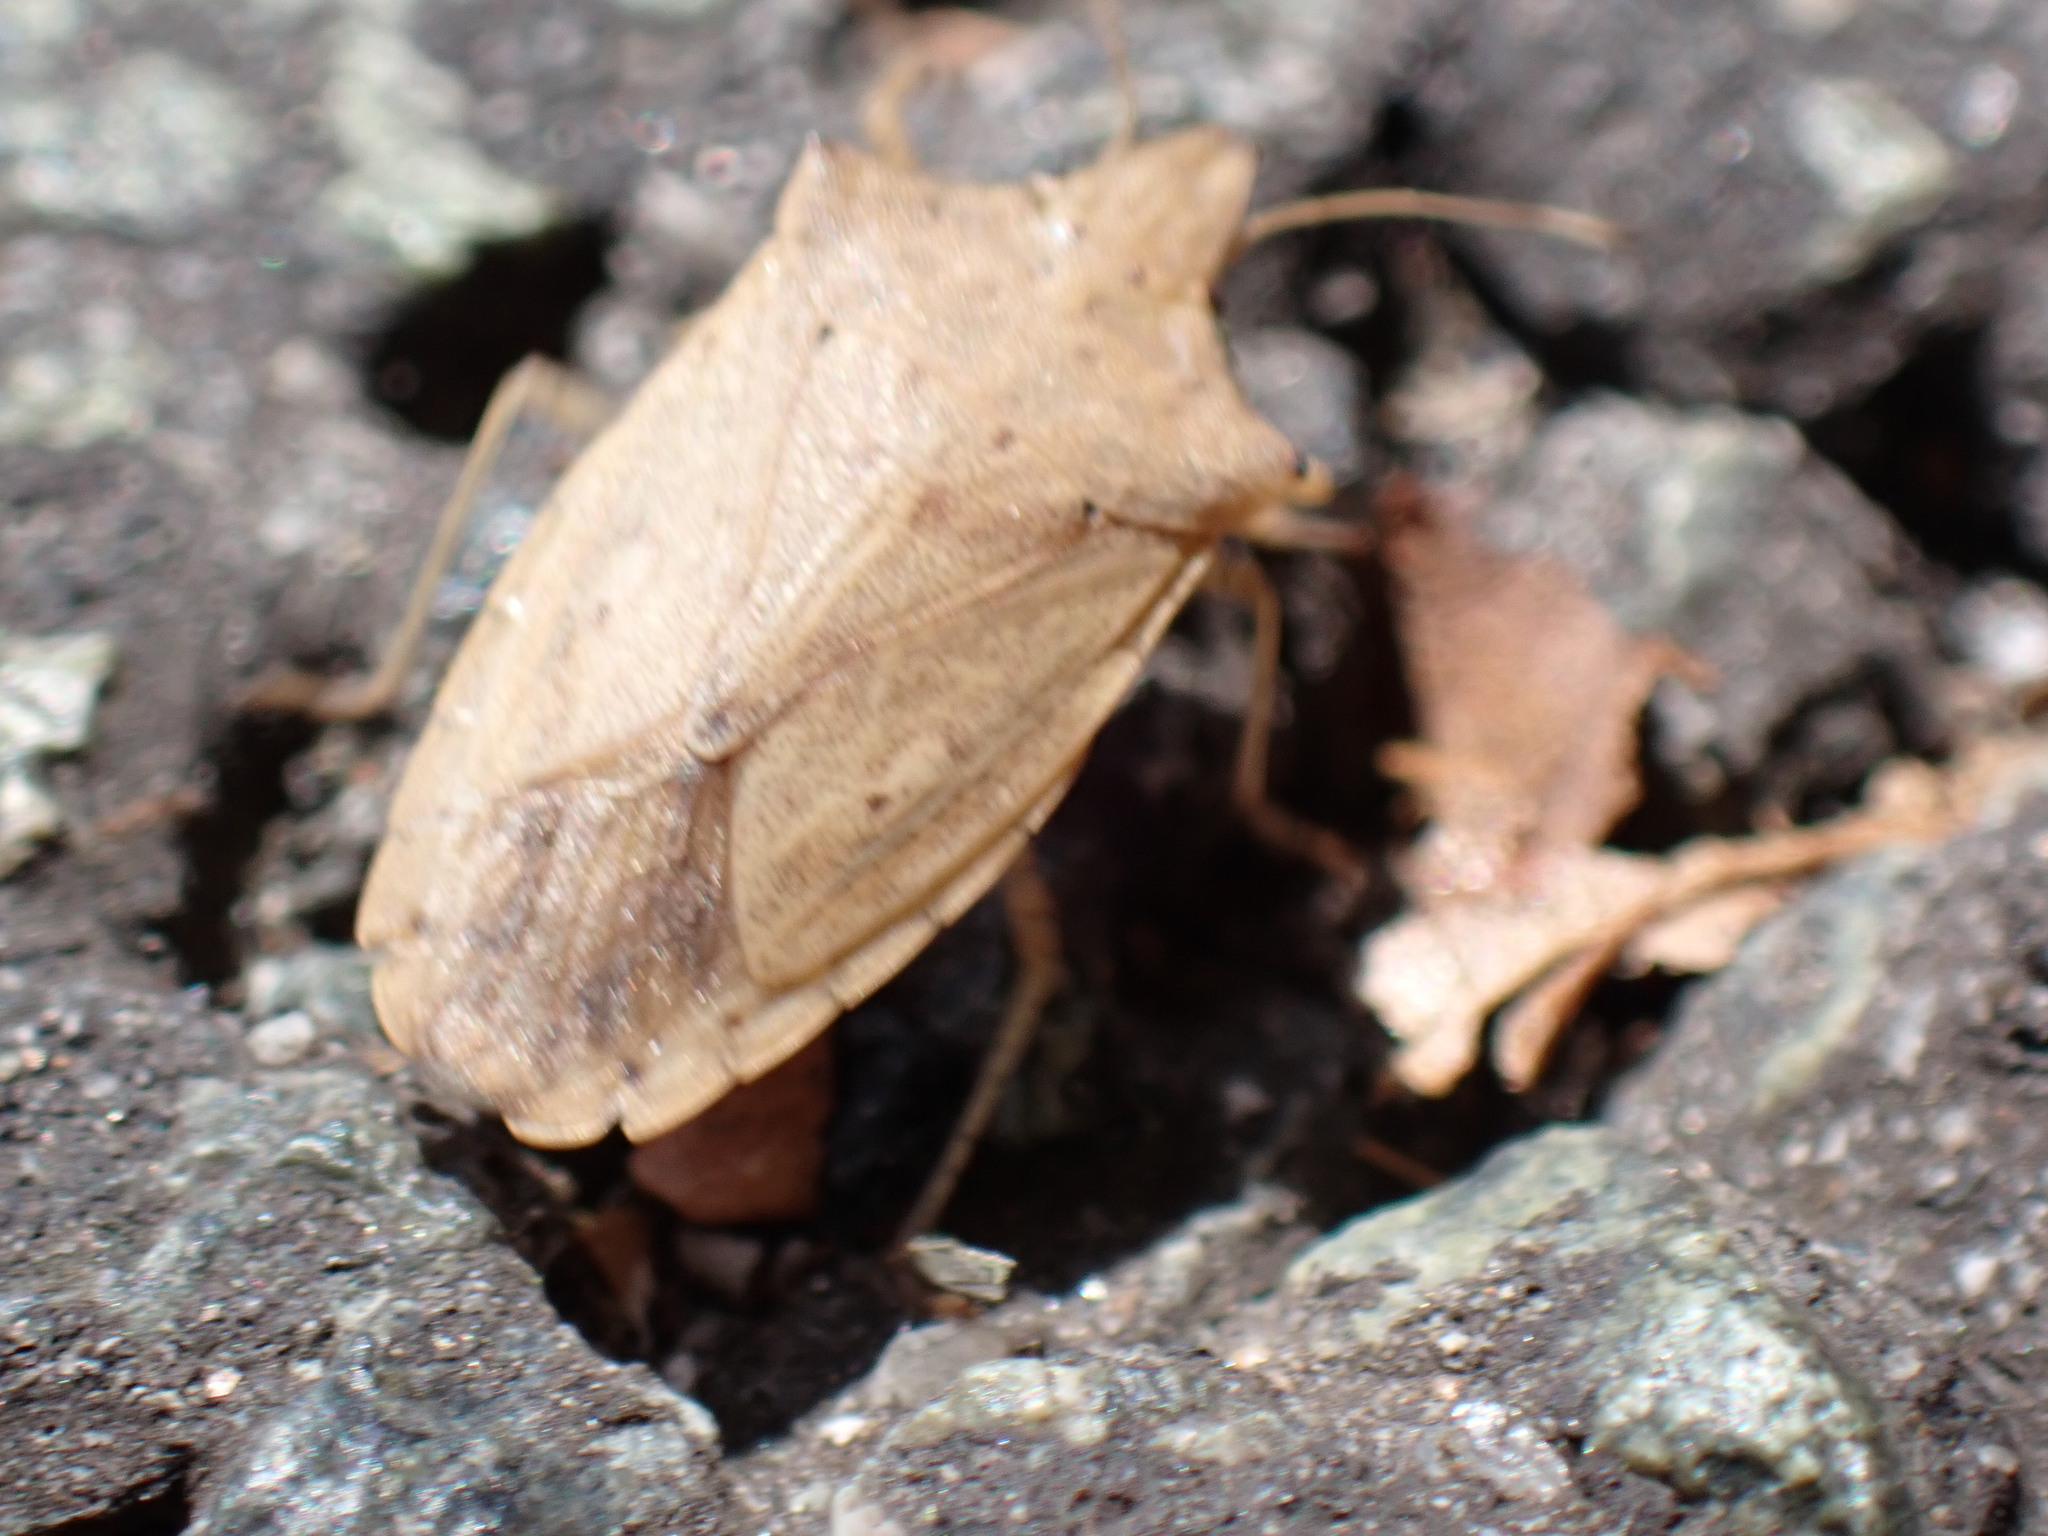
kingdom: Animalia
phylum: Arthropoda
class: Insecta
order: Hemiptera
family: Pentatomidae
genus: Brachymna
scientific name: Brachymna tenuis
